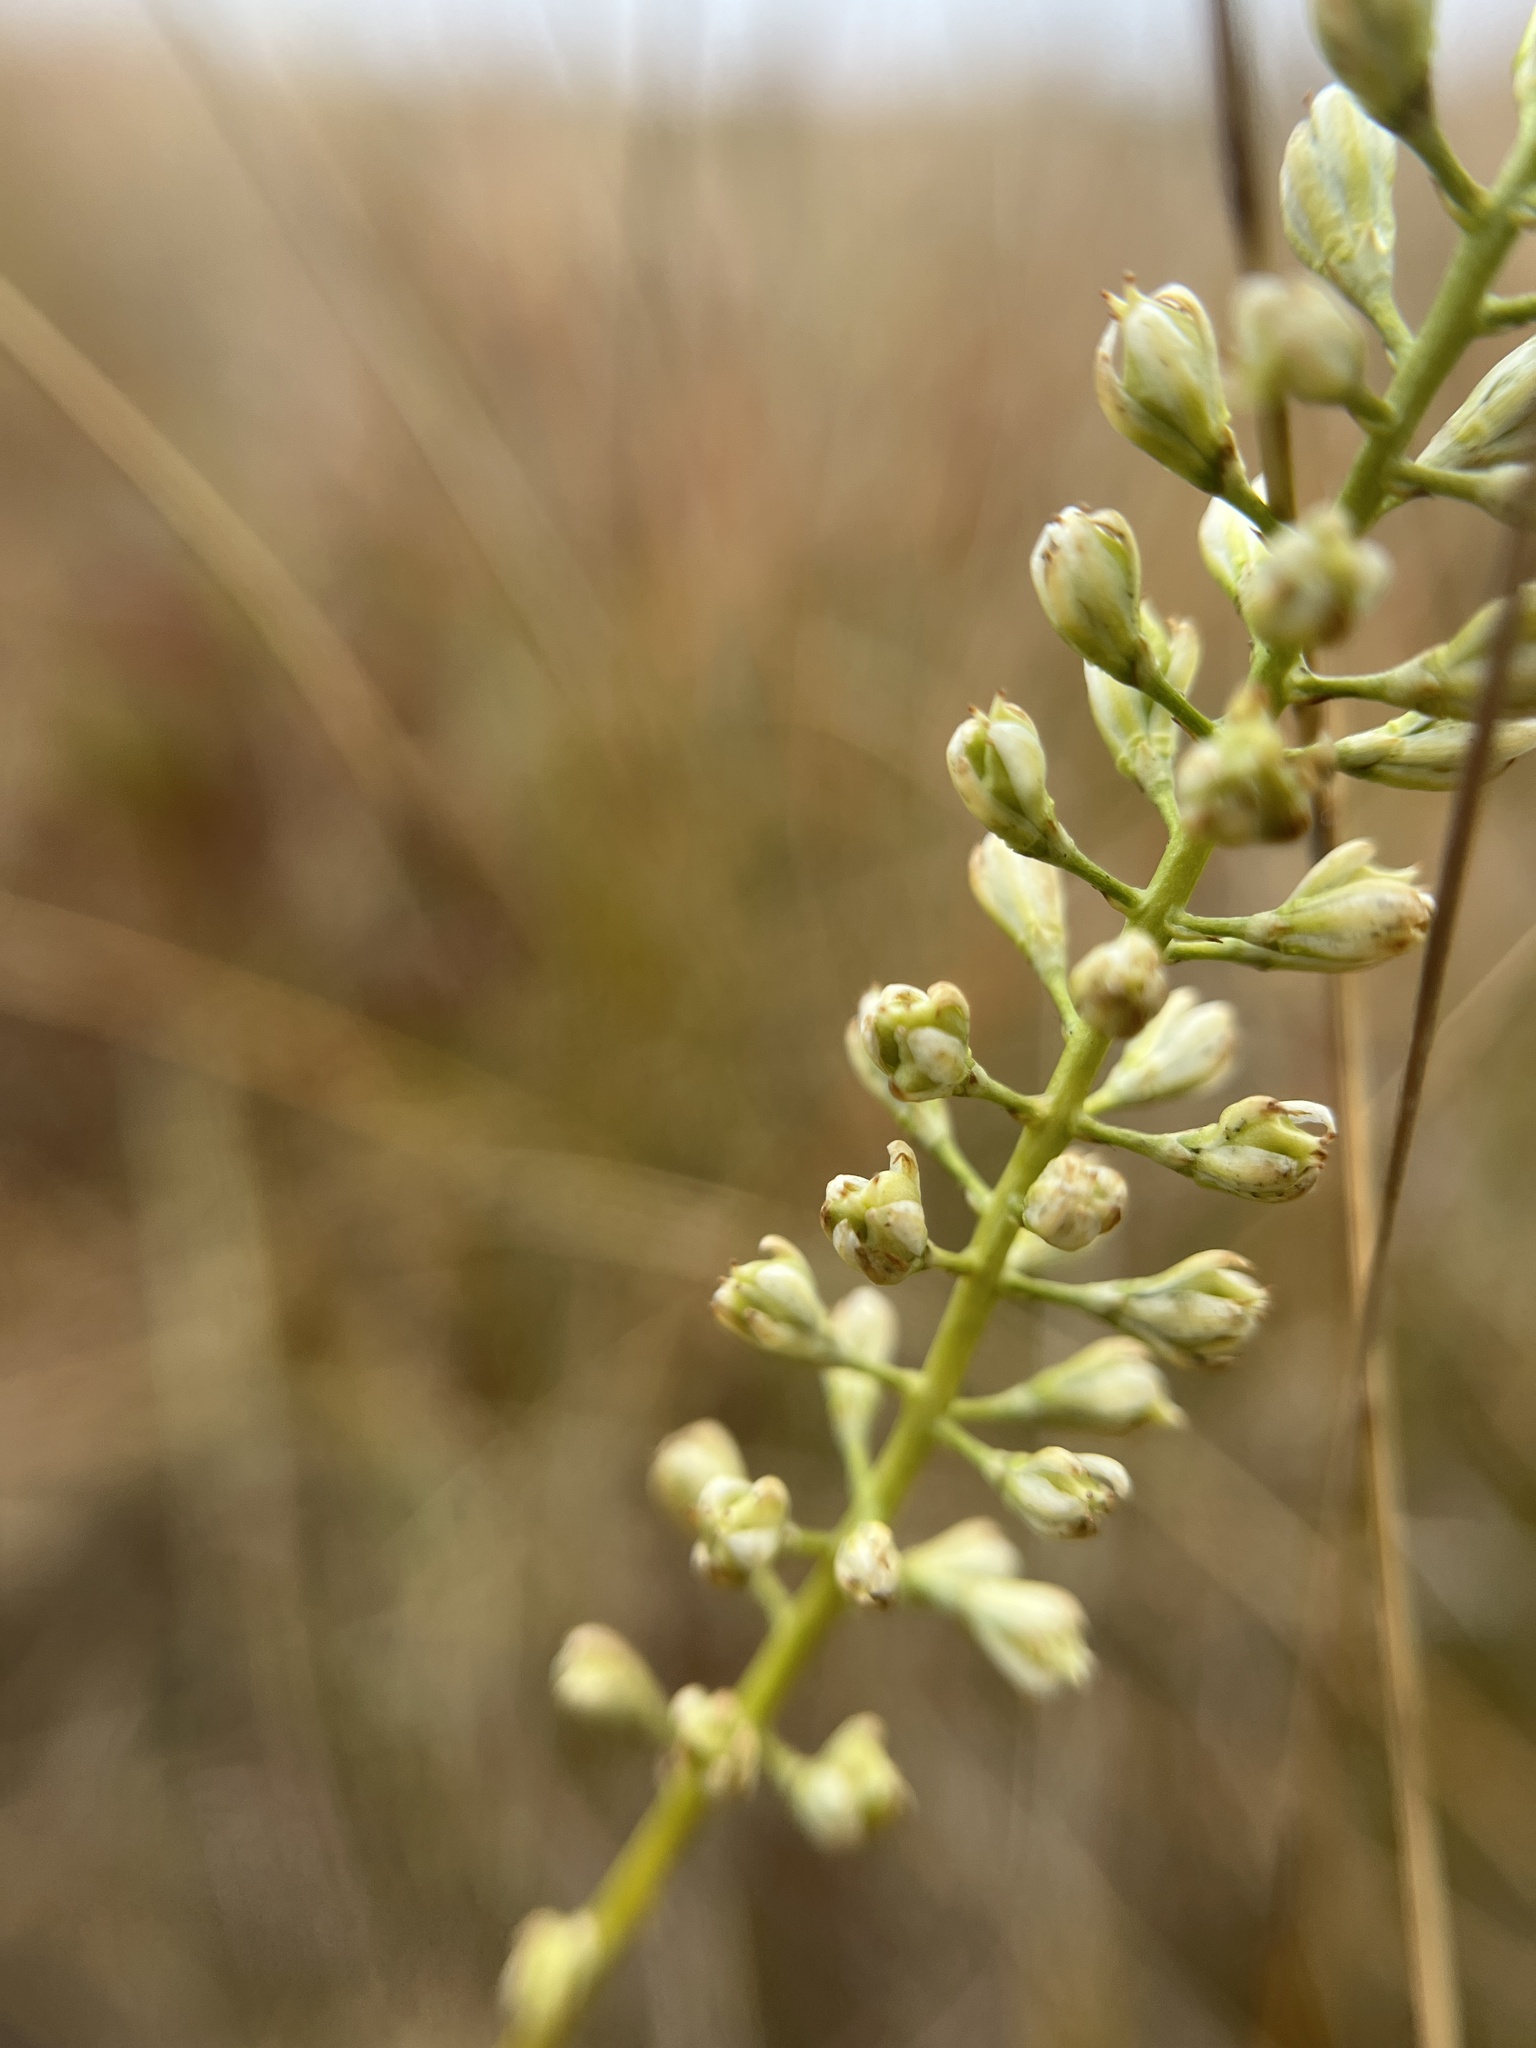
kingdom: Plantae
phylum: Tracheophyta
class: Liliopsida
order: Alismatales
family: Tofieldiaceae
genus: Tofieldia
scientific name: Tofieldia glabra
